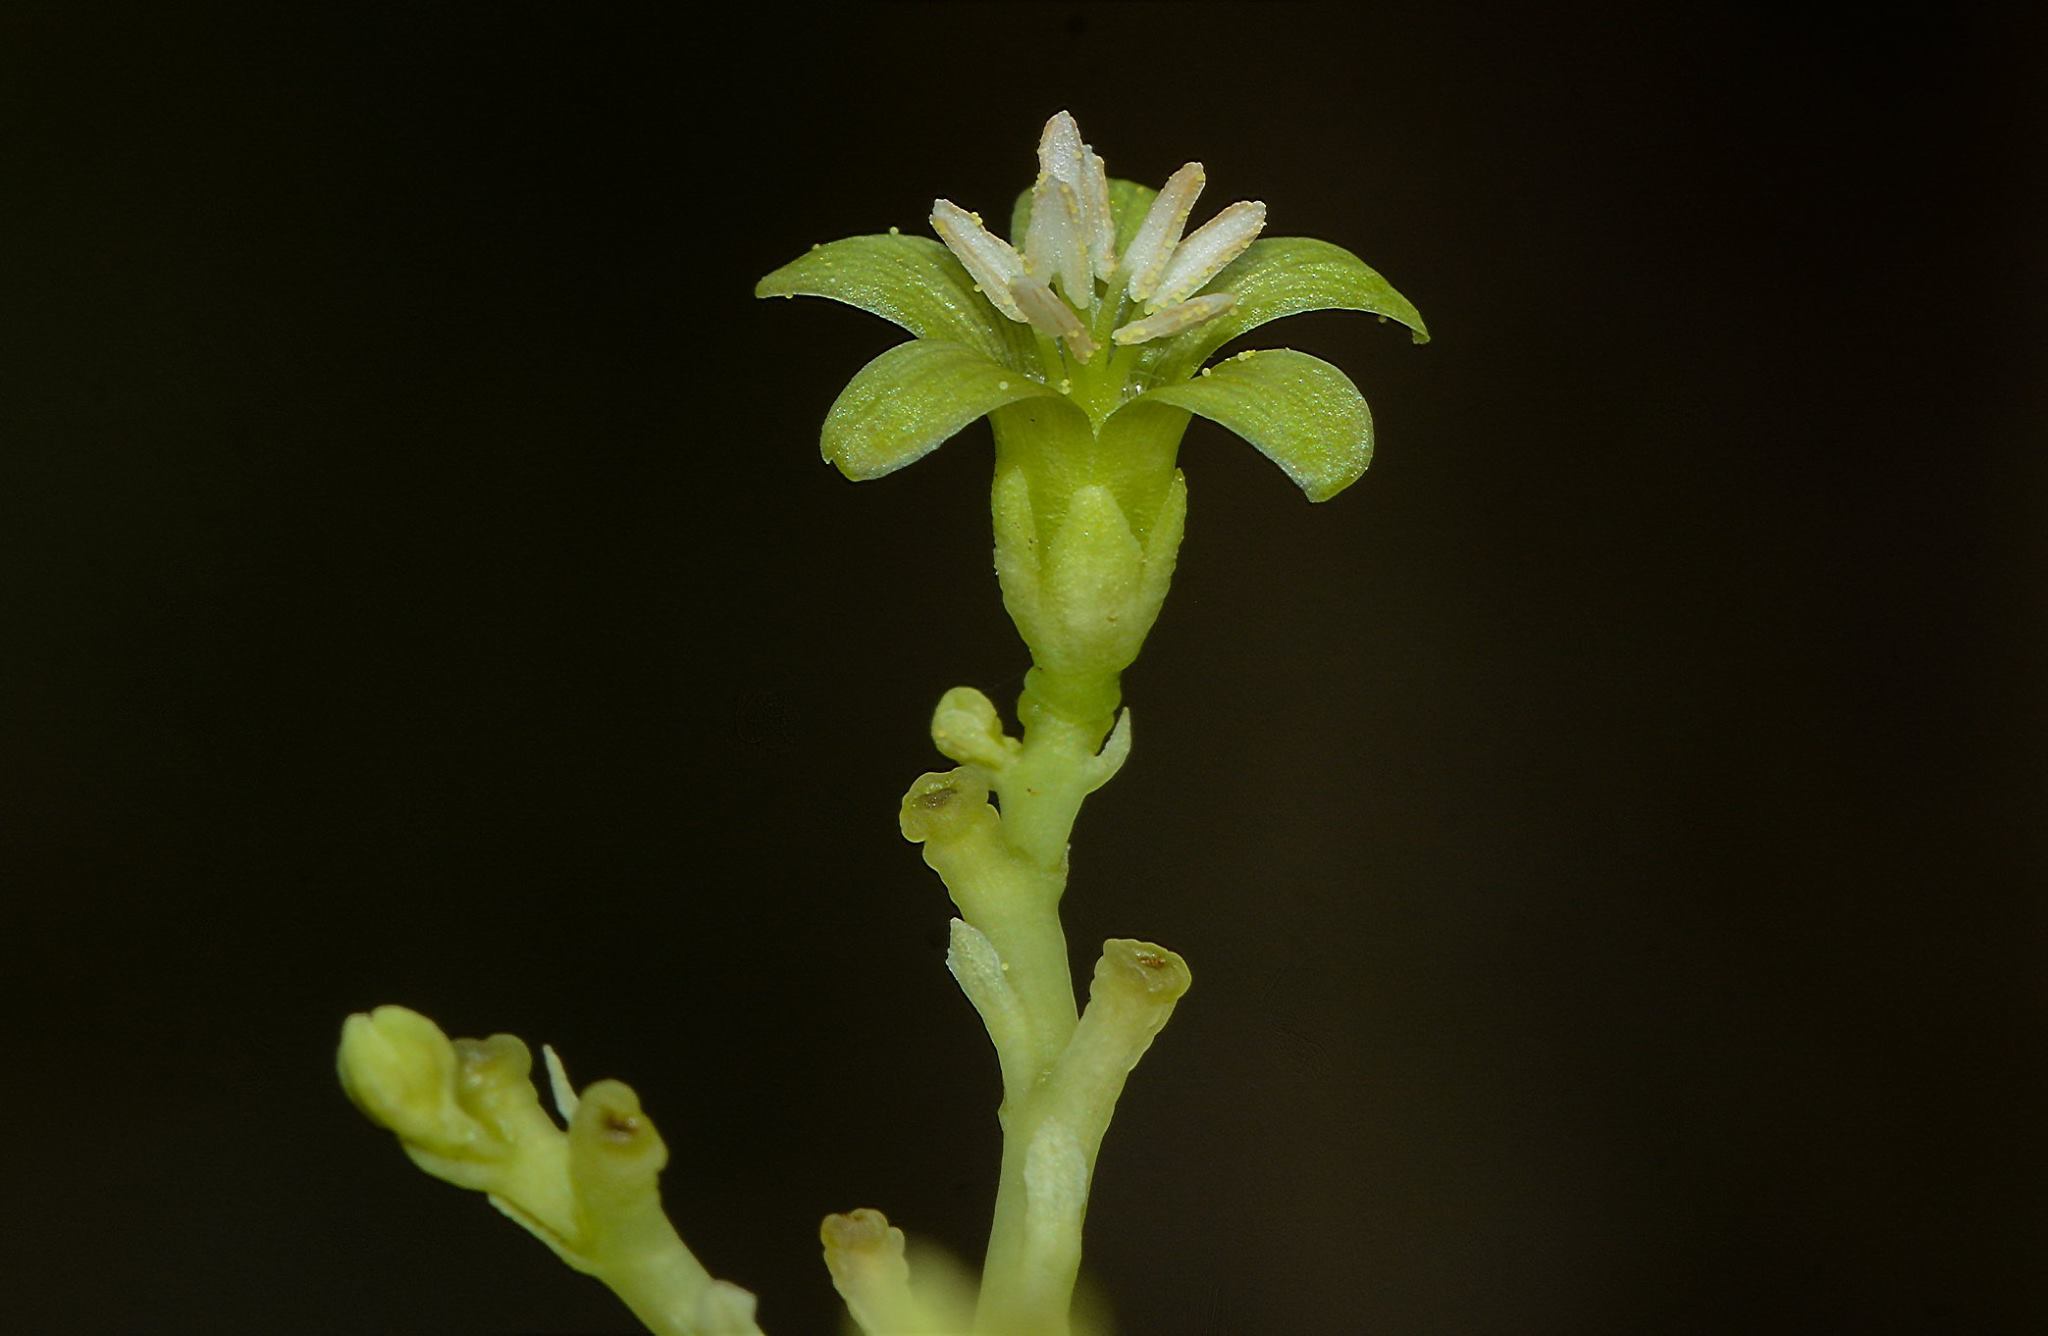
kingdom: Plantae
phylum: Tracheophyta
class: Magnoliopsida
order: Malpighiales
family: Euphorbiaceae
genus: Jatropha
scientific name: Jatropha heynei
